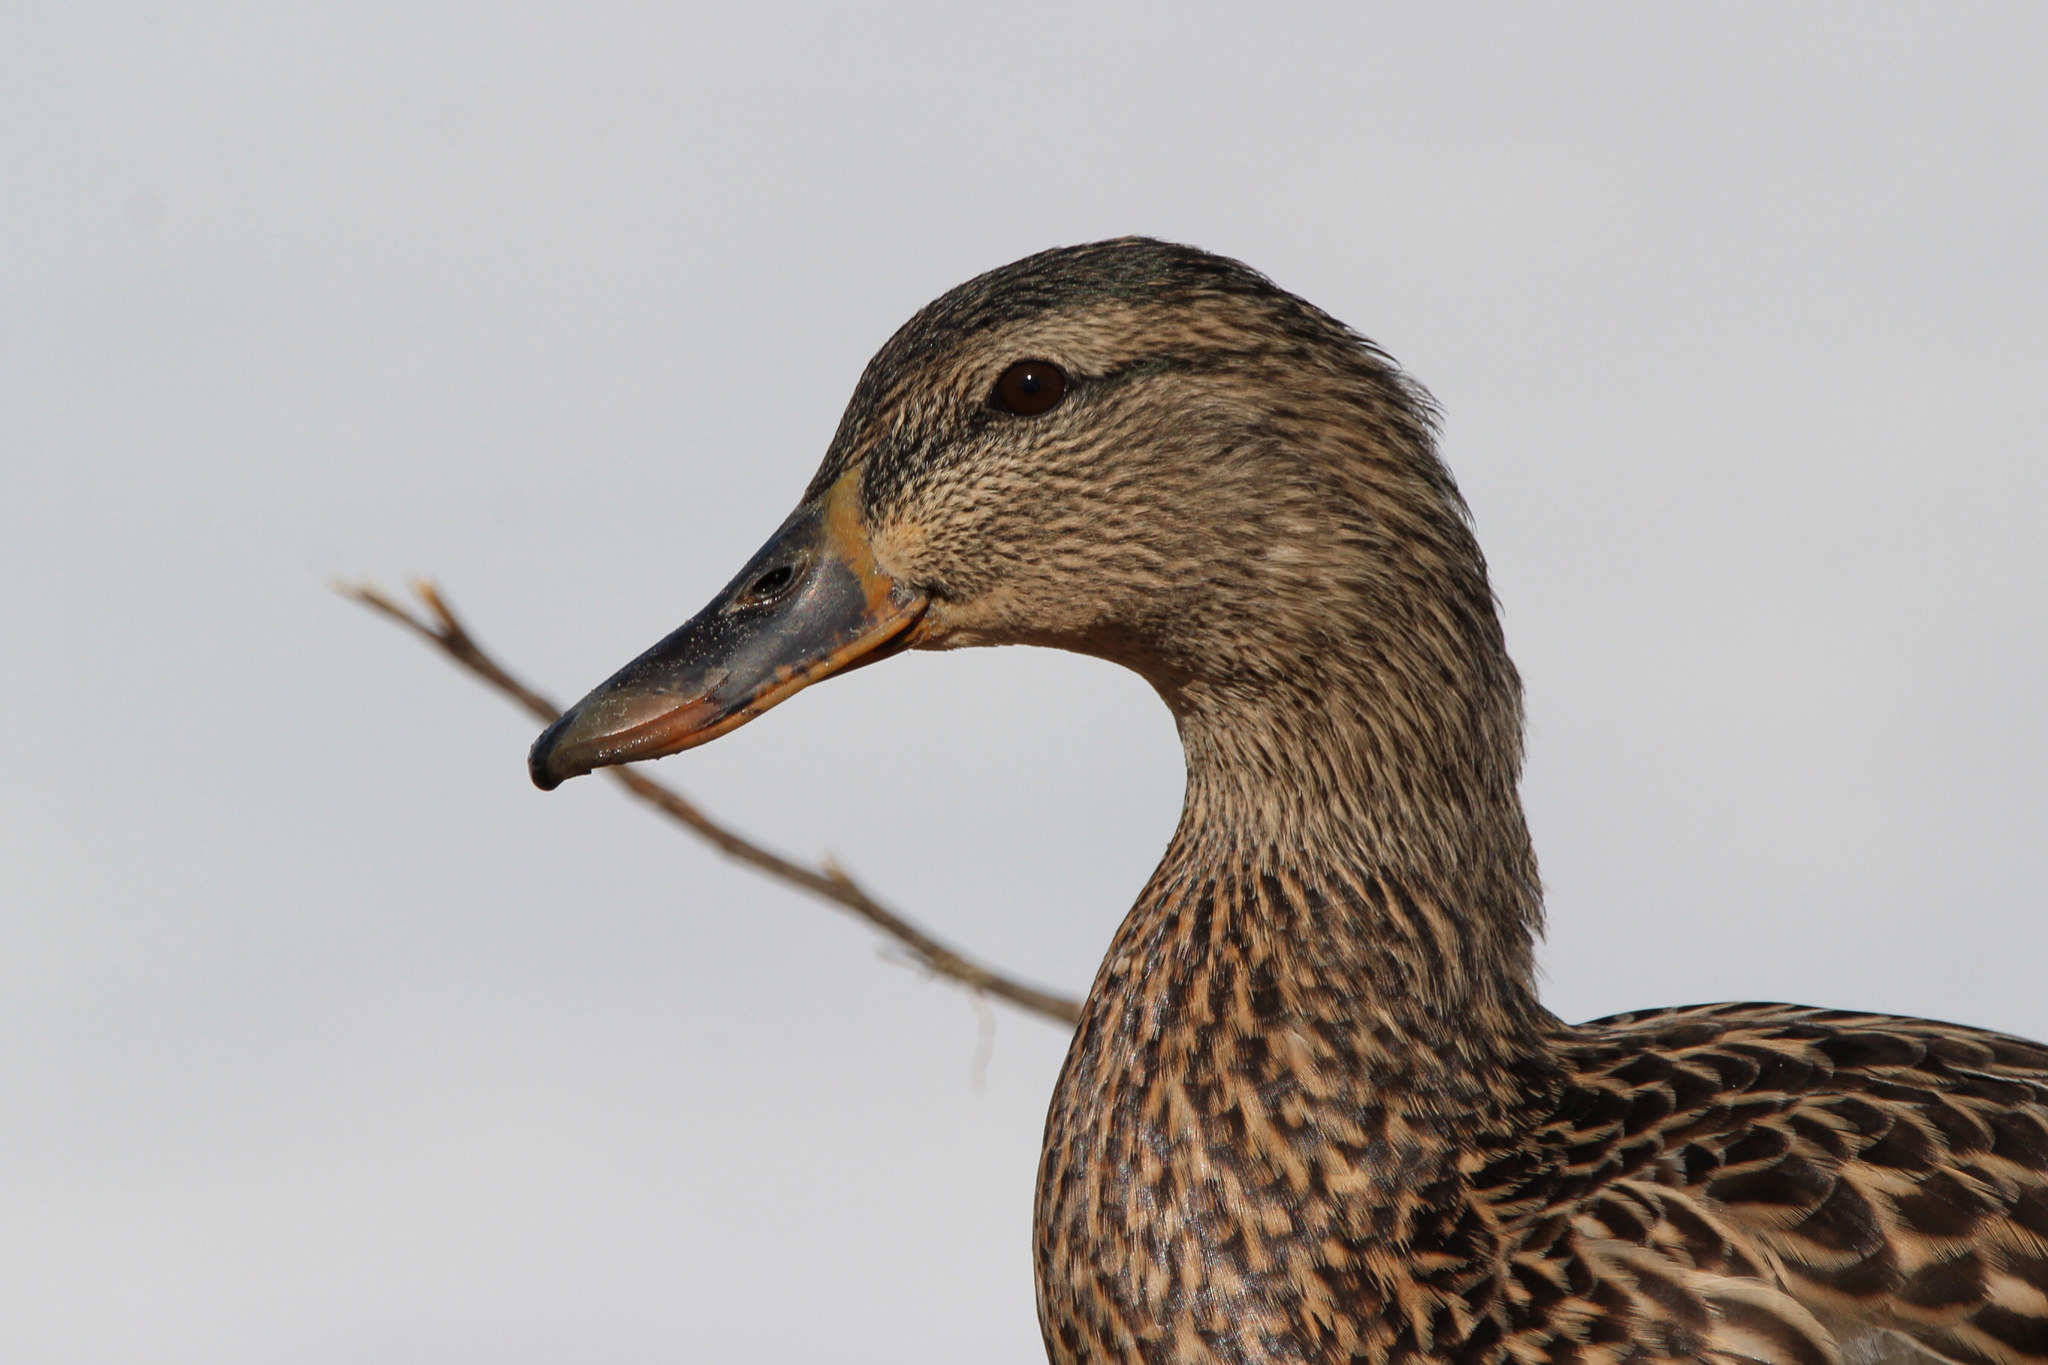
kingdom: Animalia
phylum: Chordata
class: Aves
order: Anseriformes
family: Anatidae
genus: Anas
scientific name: Anas platyrhynchos
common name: Mallard
